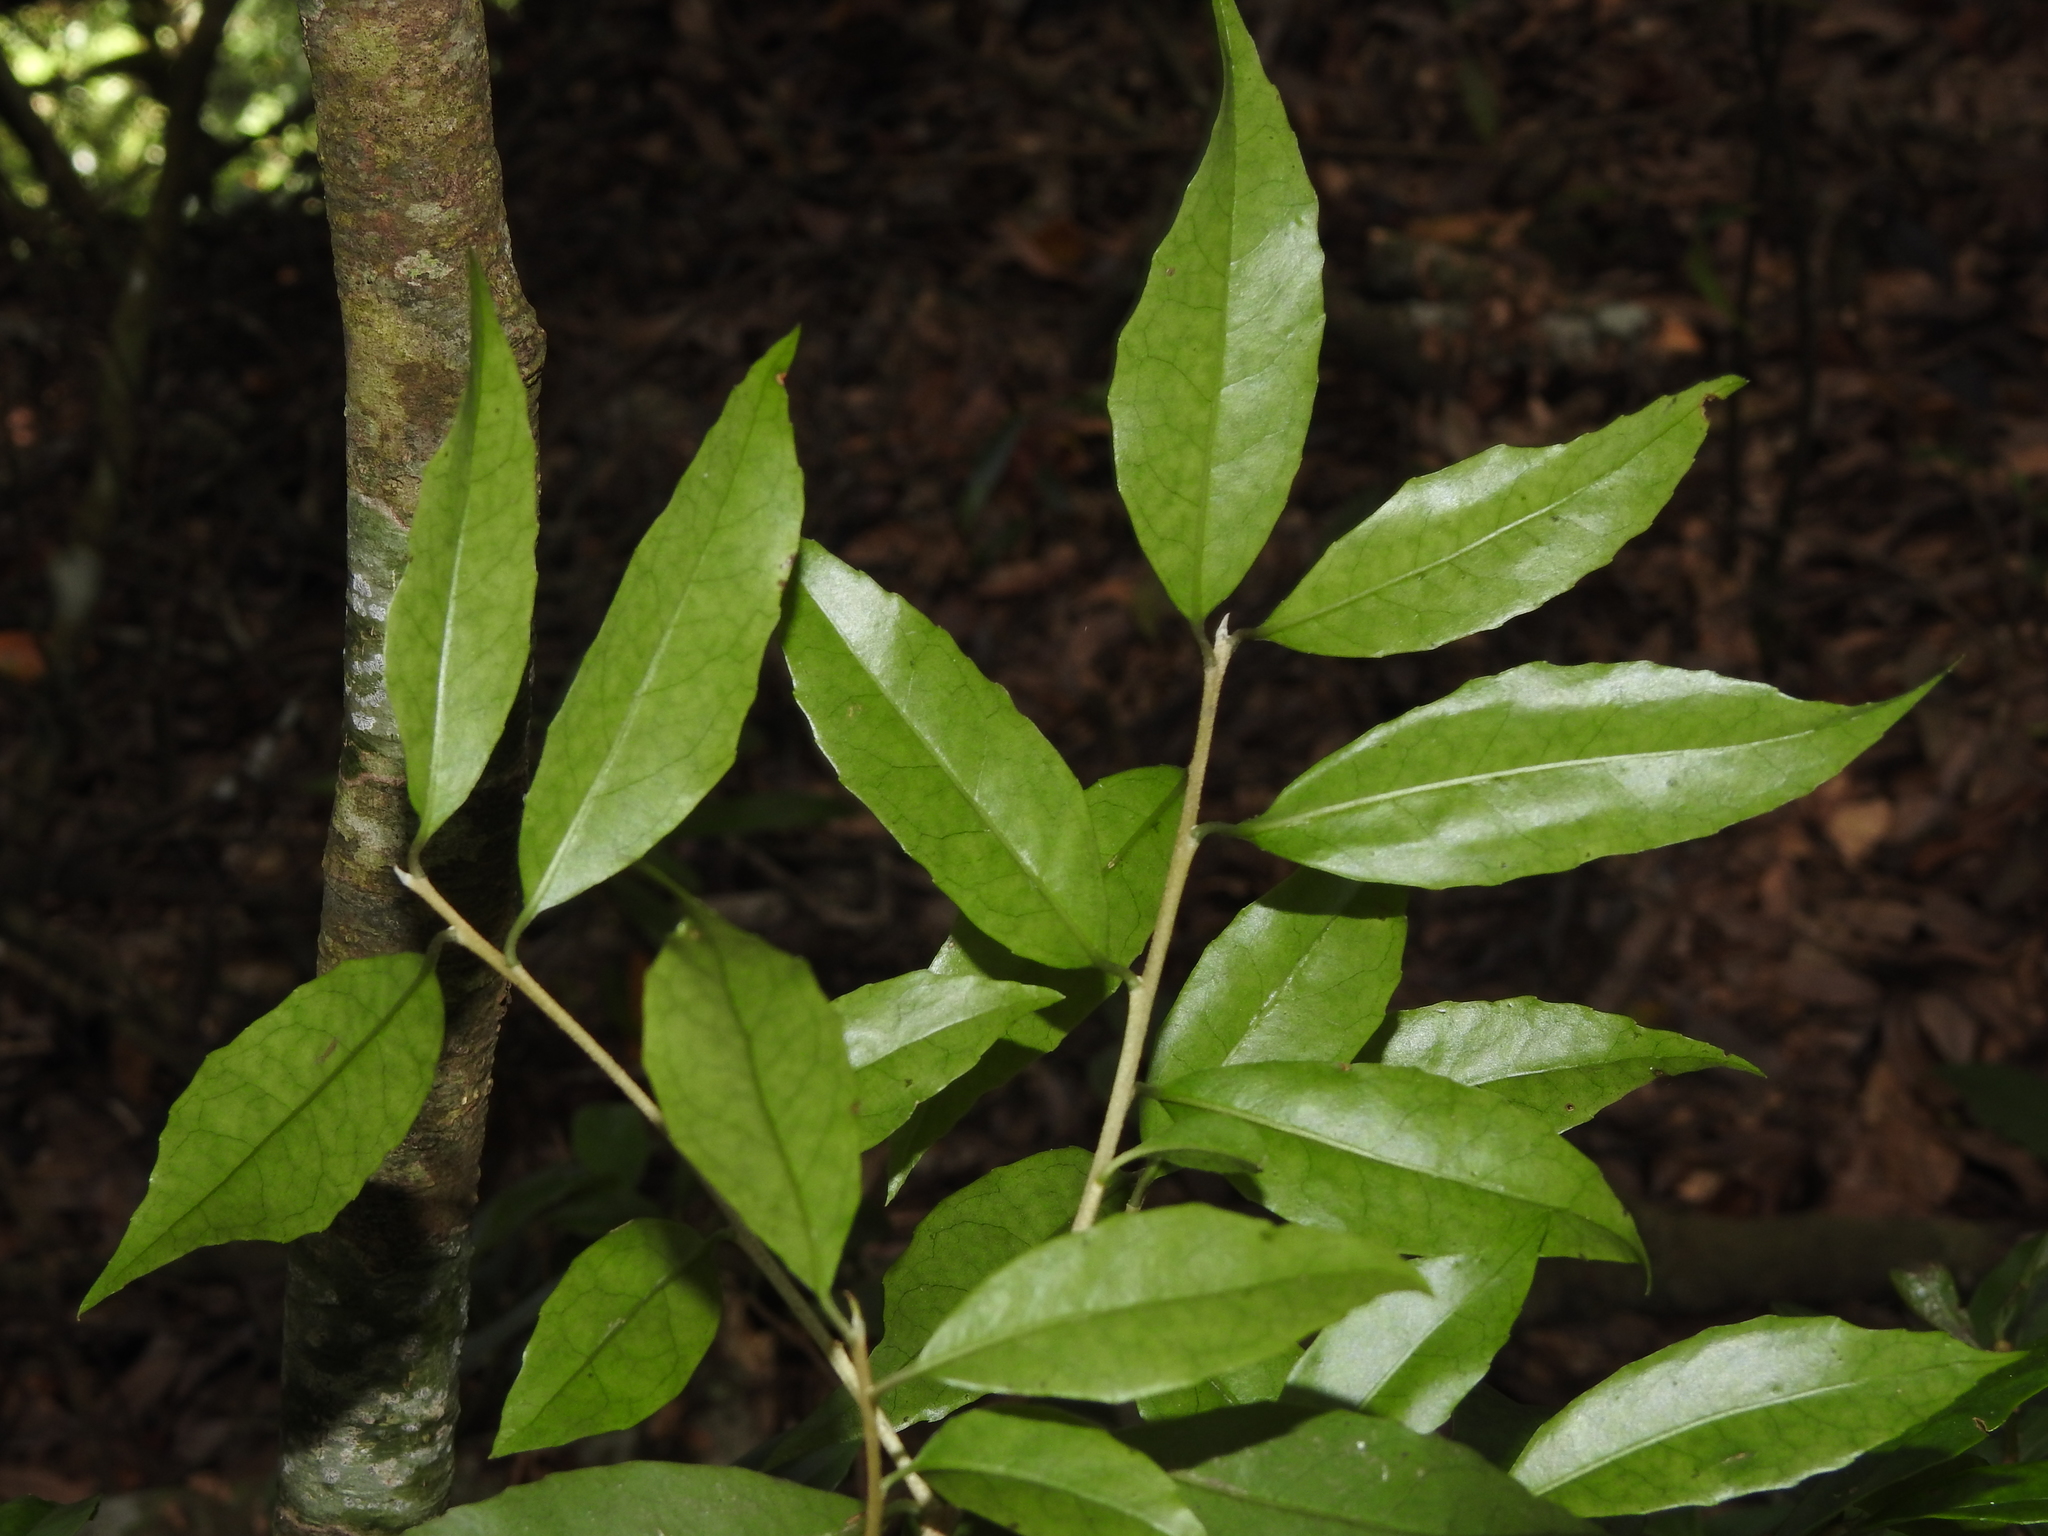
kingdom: Plantae
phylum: Tracheophyta
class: Magnoliopsida
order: Ericales
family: Symplocaceae
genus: Symplocos
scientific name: Symplocos sonoharae
